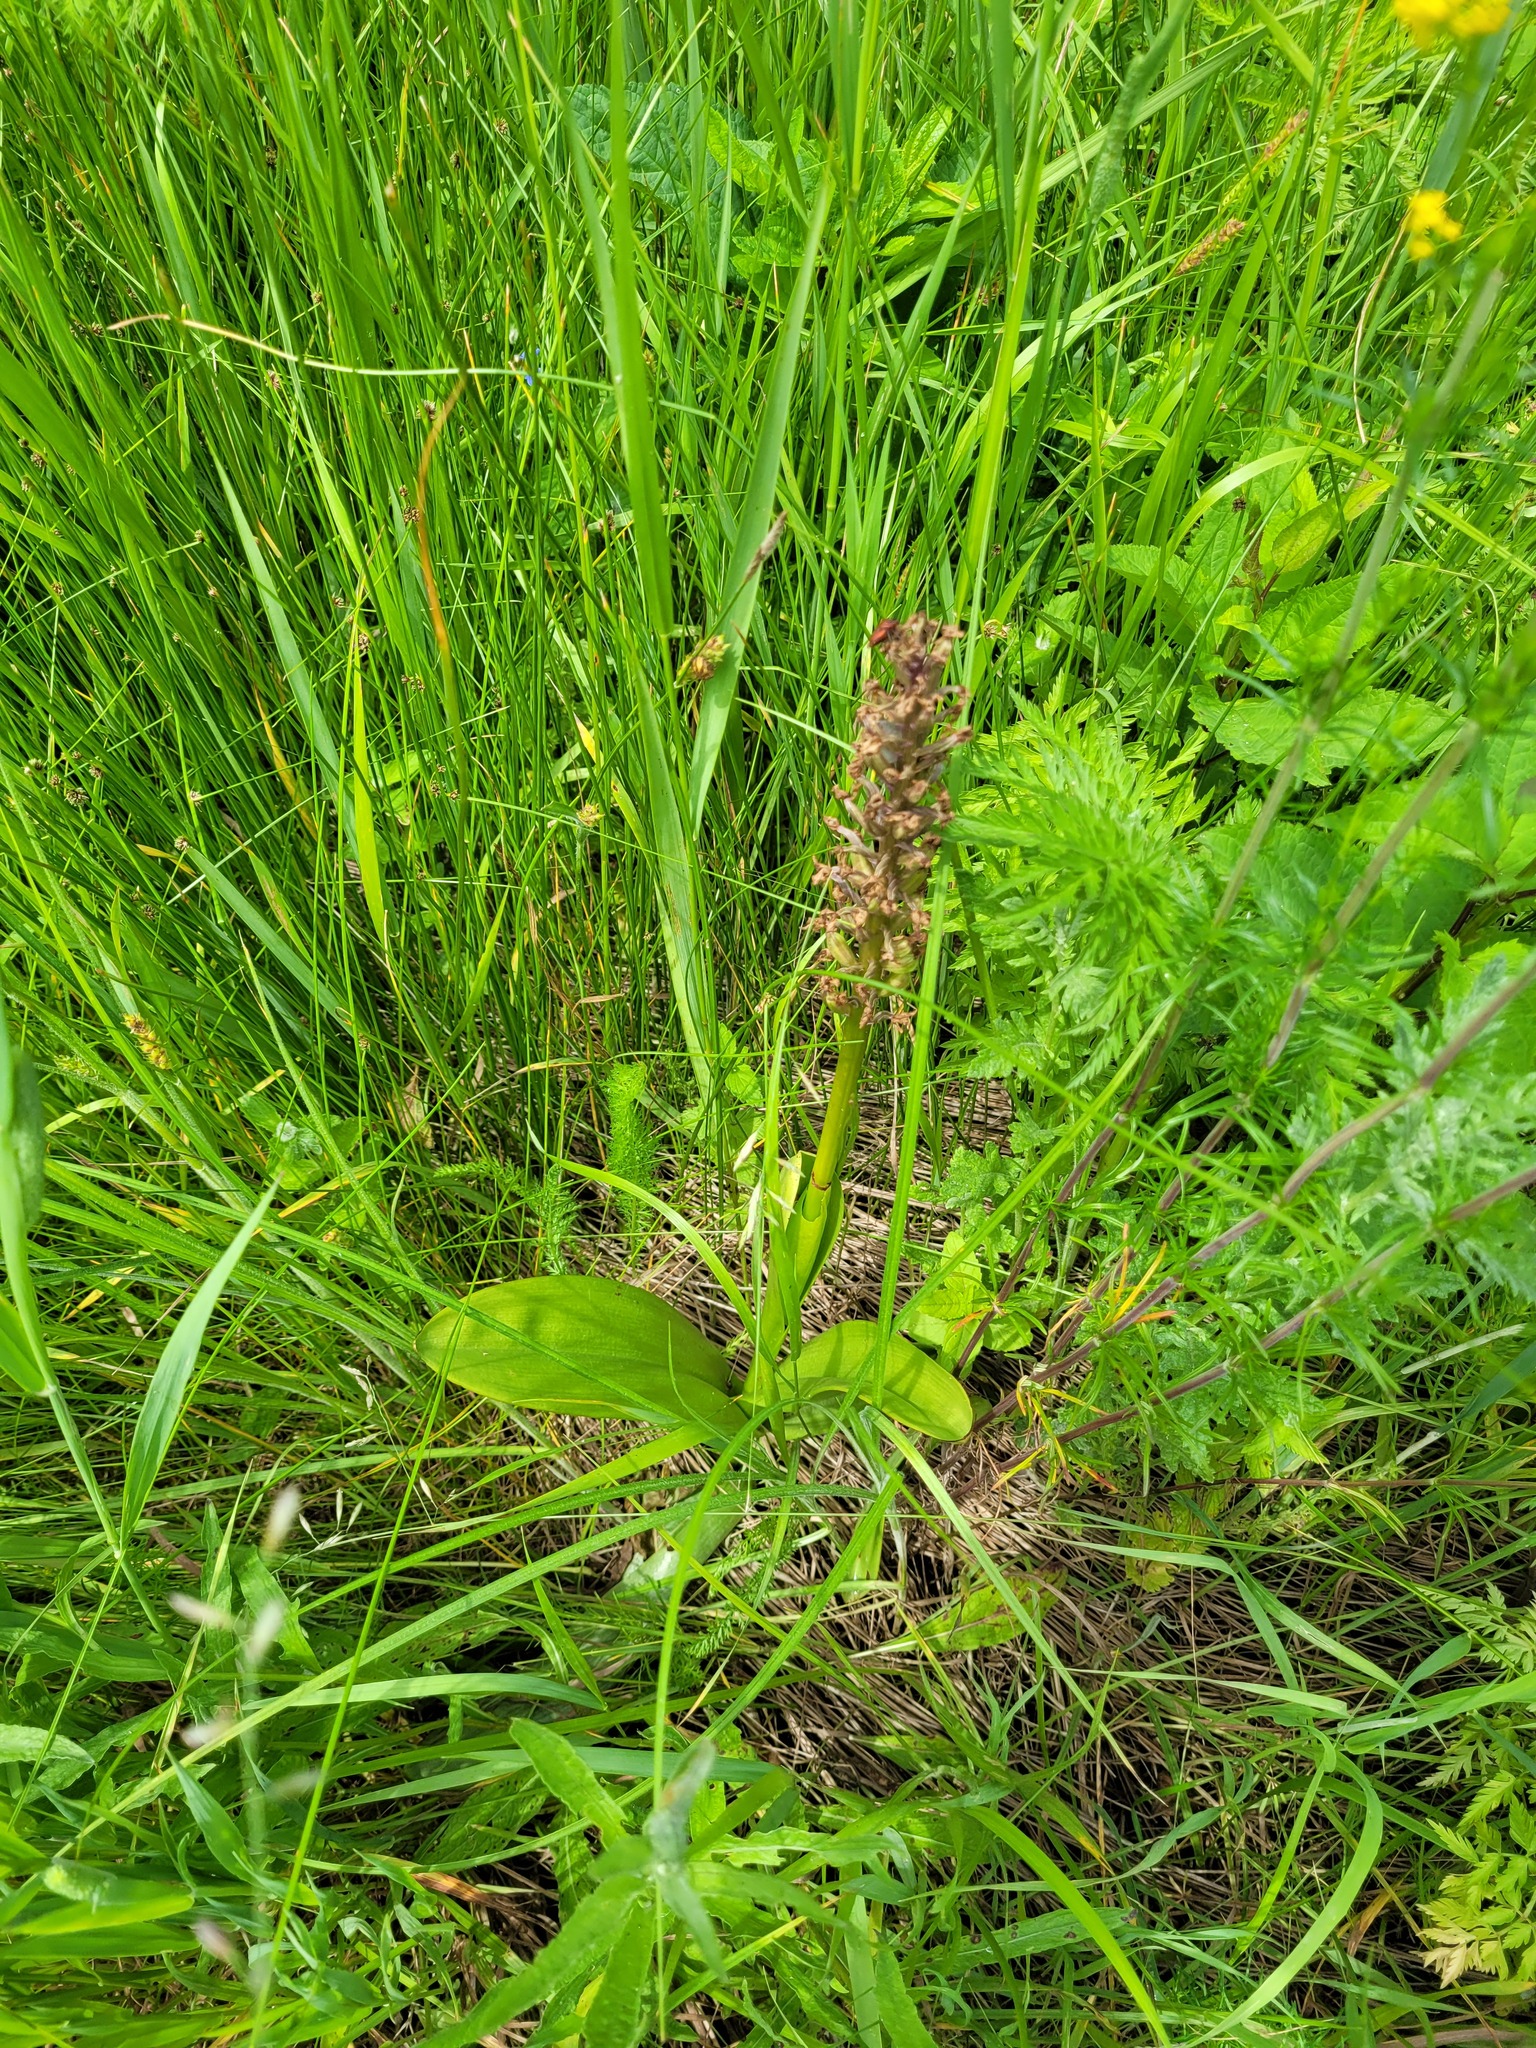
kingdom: Plantae
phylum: Tracheophyta
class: Liliopsida
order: Asparagales
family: Orchidaceae
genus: Orchis
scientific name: Orchis militaris
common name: Military orchid
